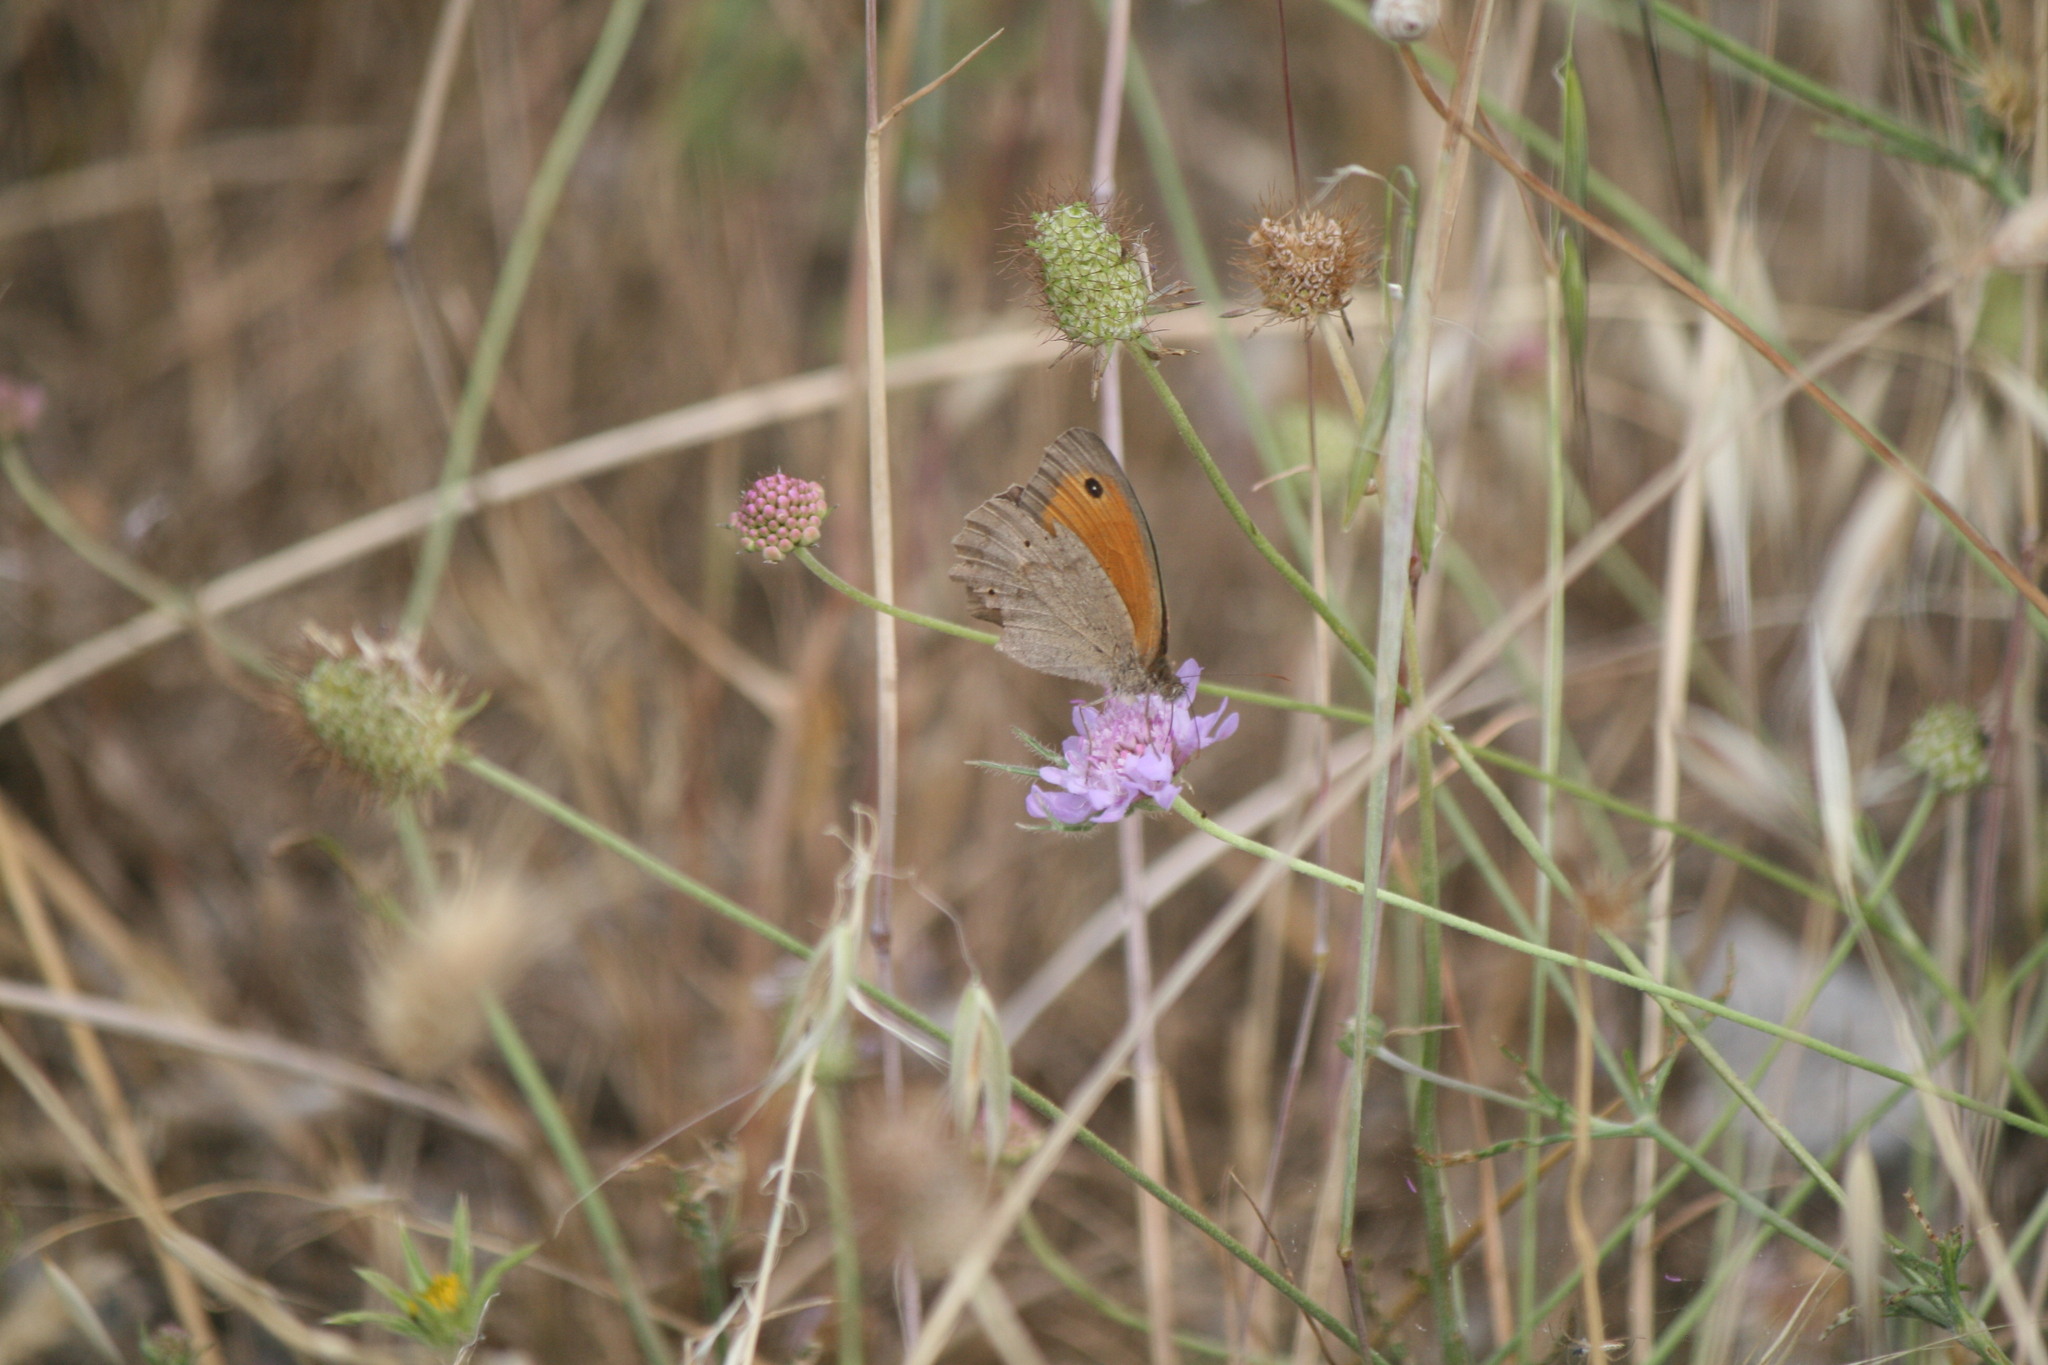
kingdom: Animalia
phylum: Arthropoda
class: Insecta
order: Lepidoptera
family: Nymphalidae
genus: Maniola
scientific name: Maniola jurtina
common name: Meadow brown
